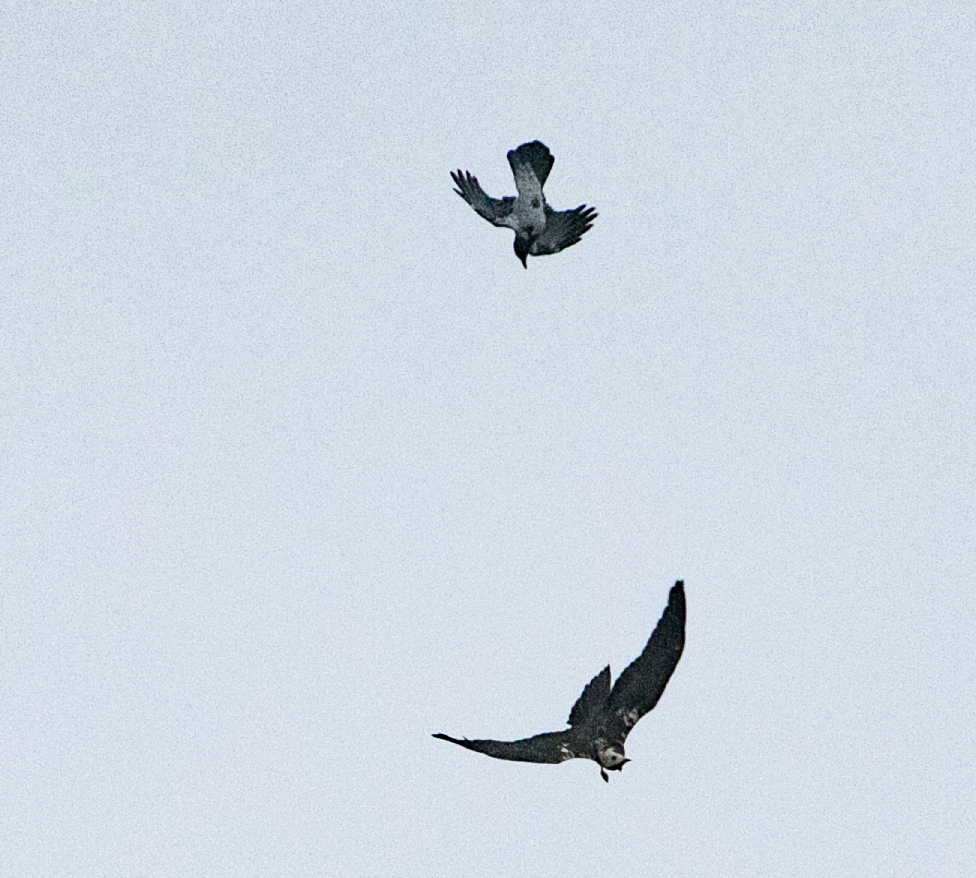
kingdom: Animalia
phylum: Chordata
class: Aves
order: Accipitriformes
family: Accipitridae
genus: Circus
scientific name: Circus aeruginosus
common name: Western marsh harrier
